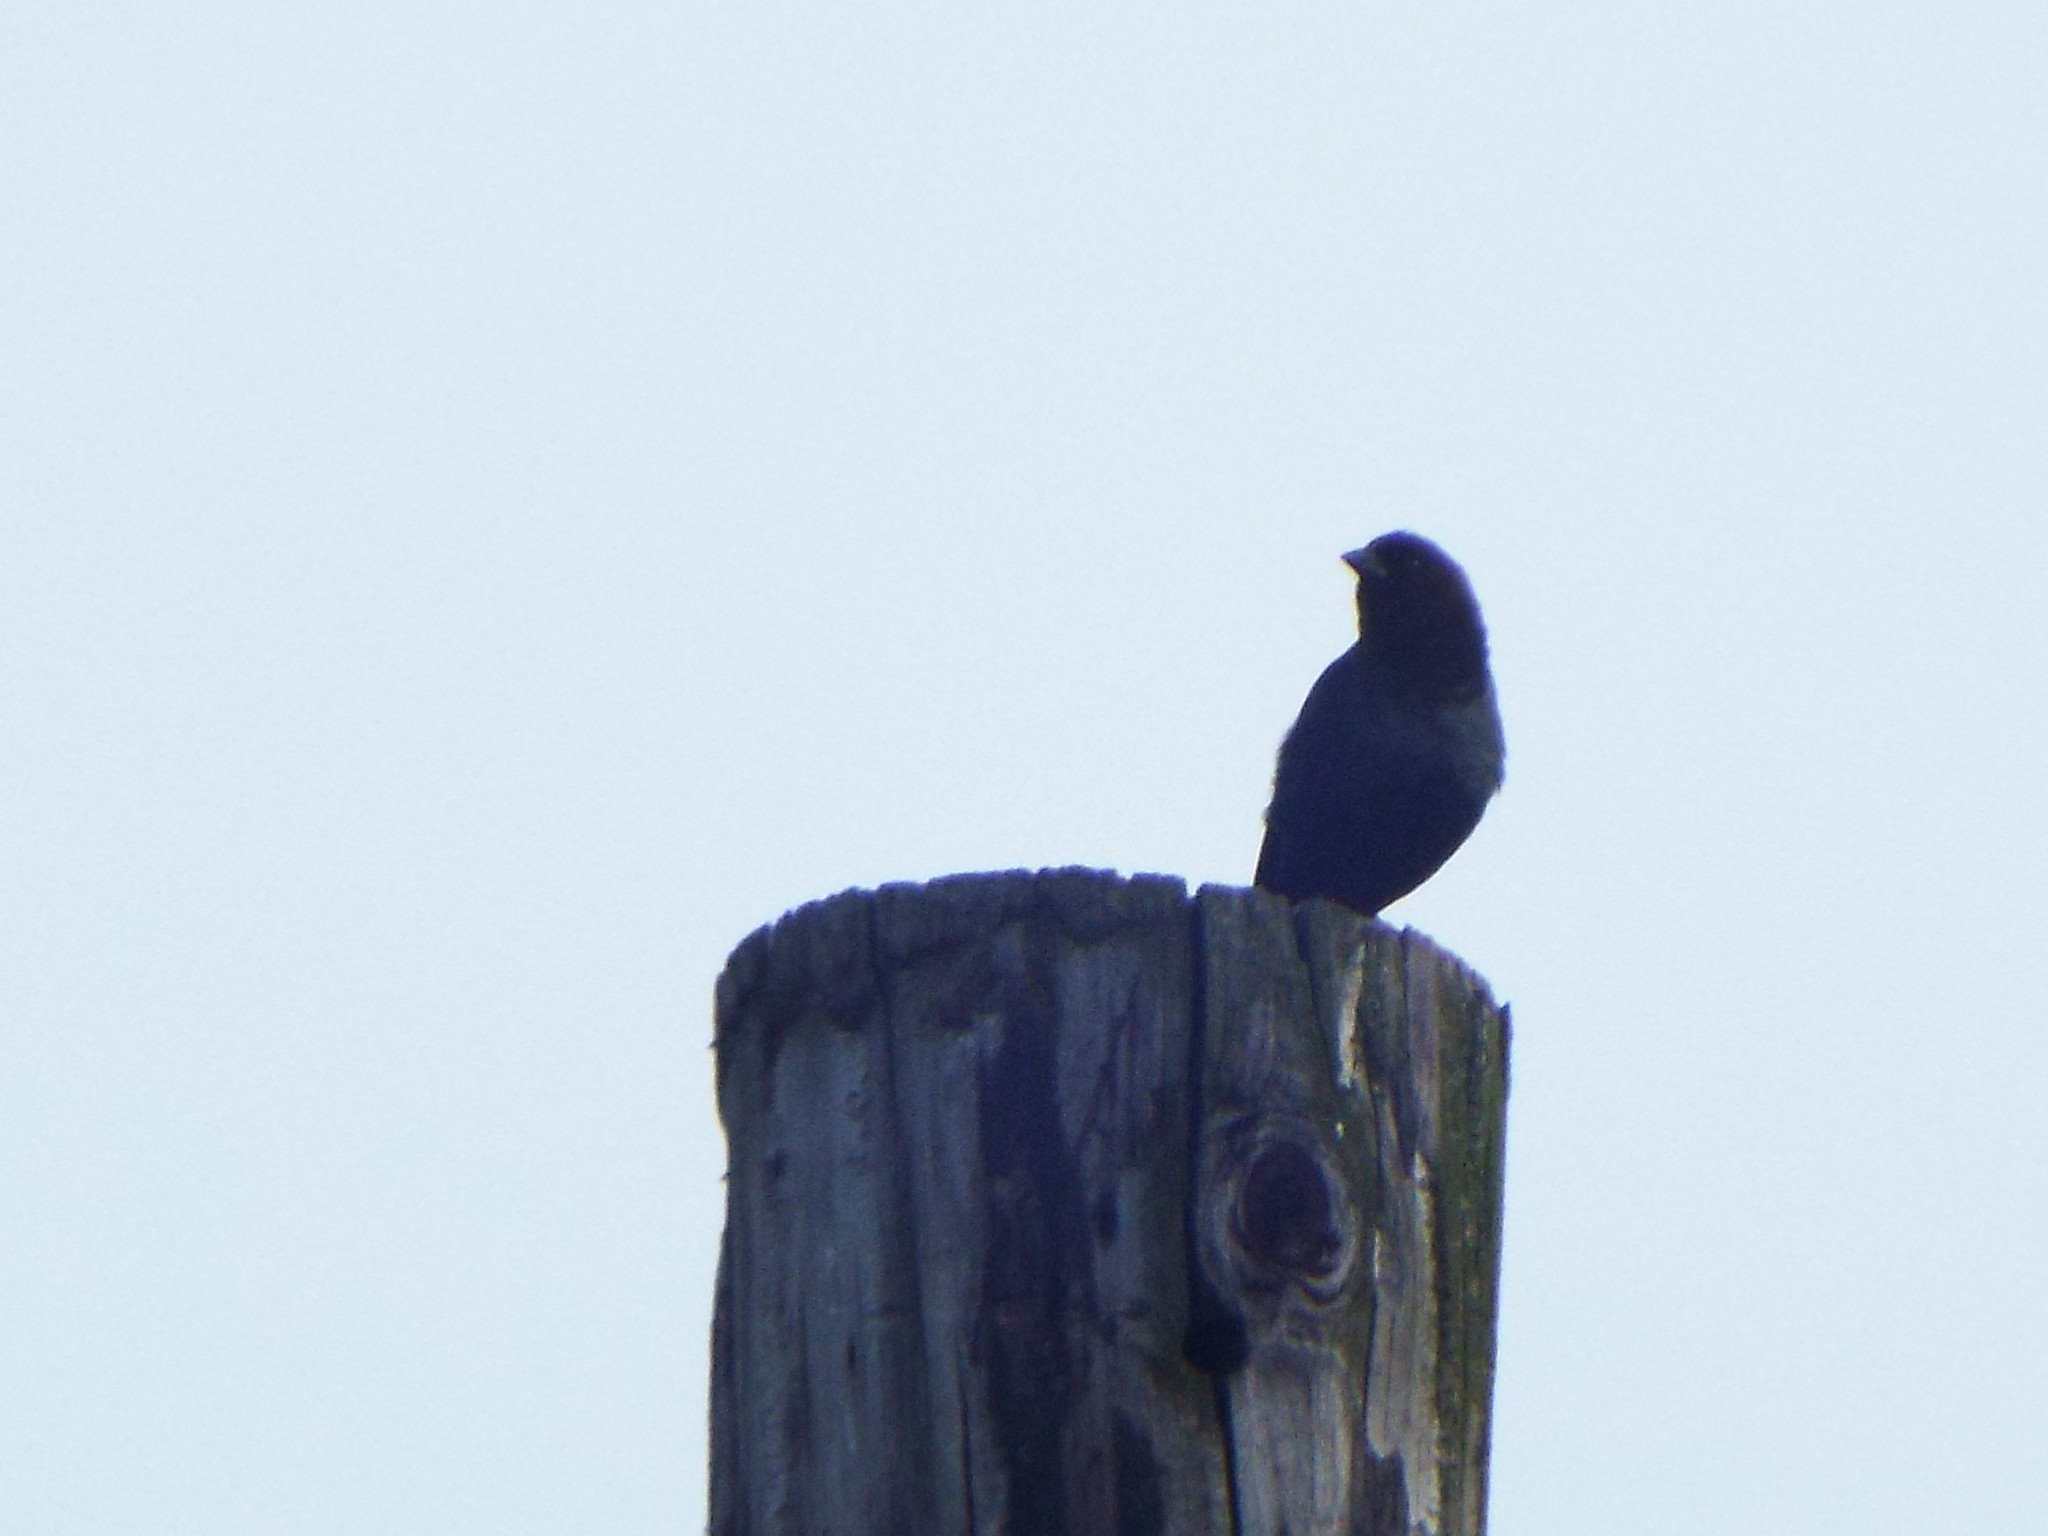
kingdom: Animalia
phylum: Chordata
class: Aves
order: Passeriformes
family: Icteridae
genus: Molothrus
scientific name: Molothrus ater
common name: Brown-headed cowbird
